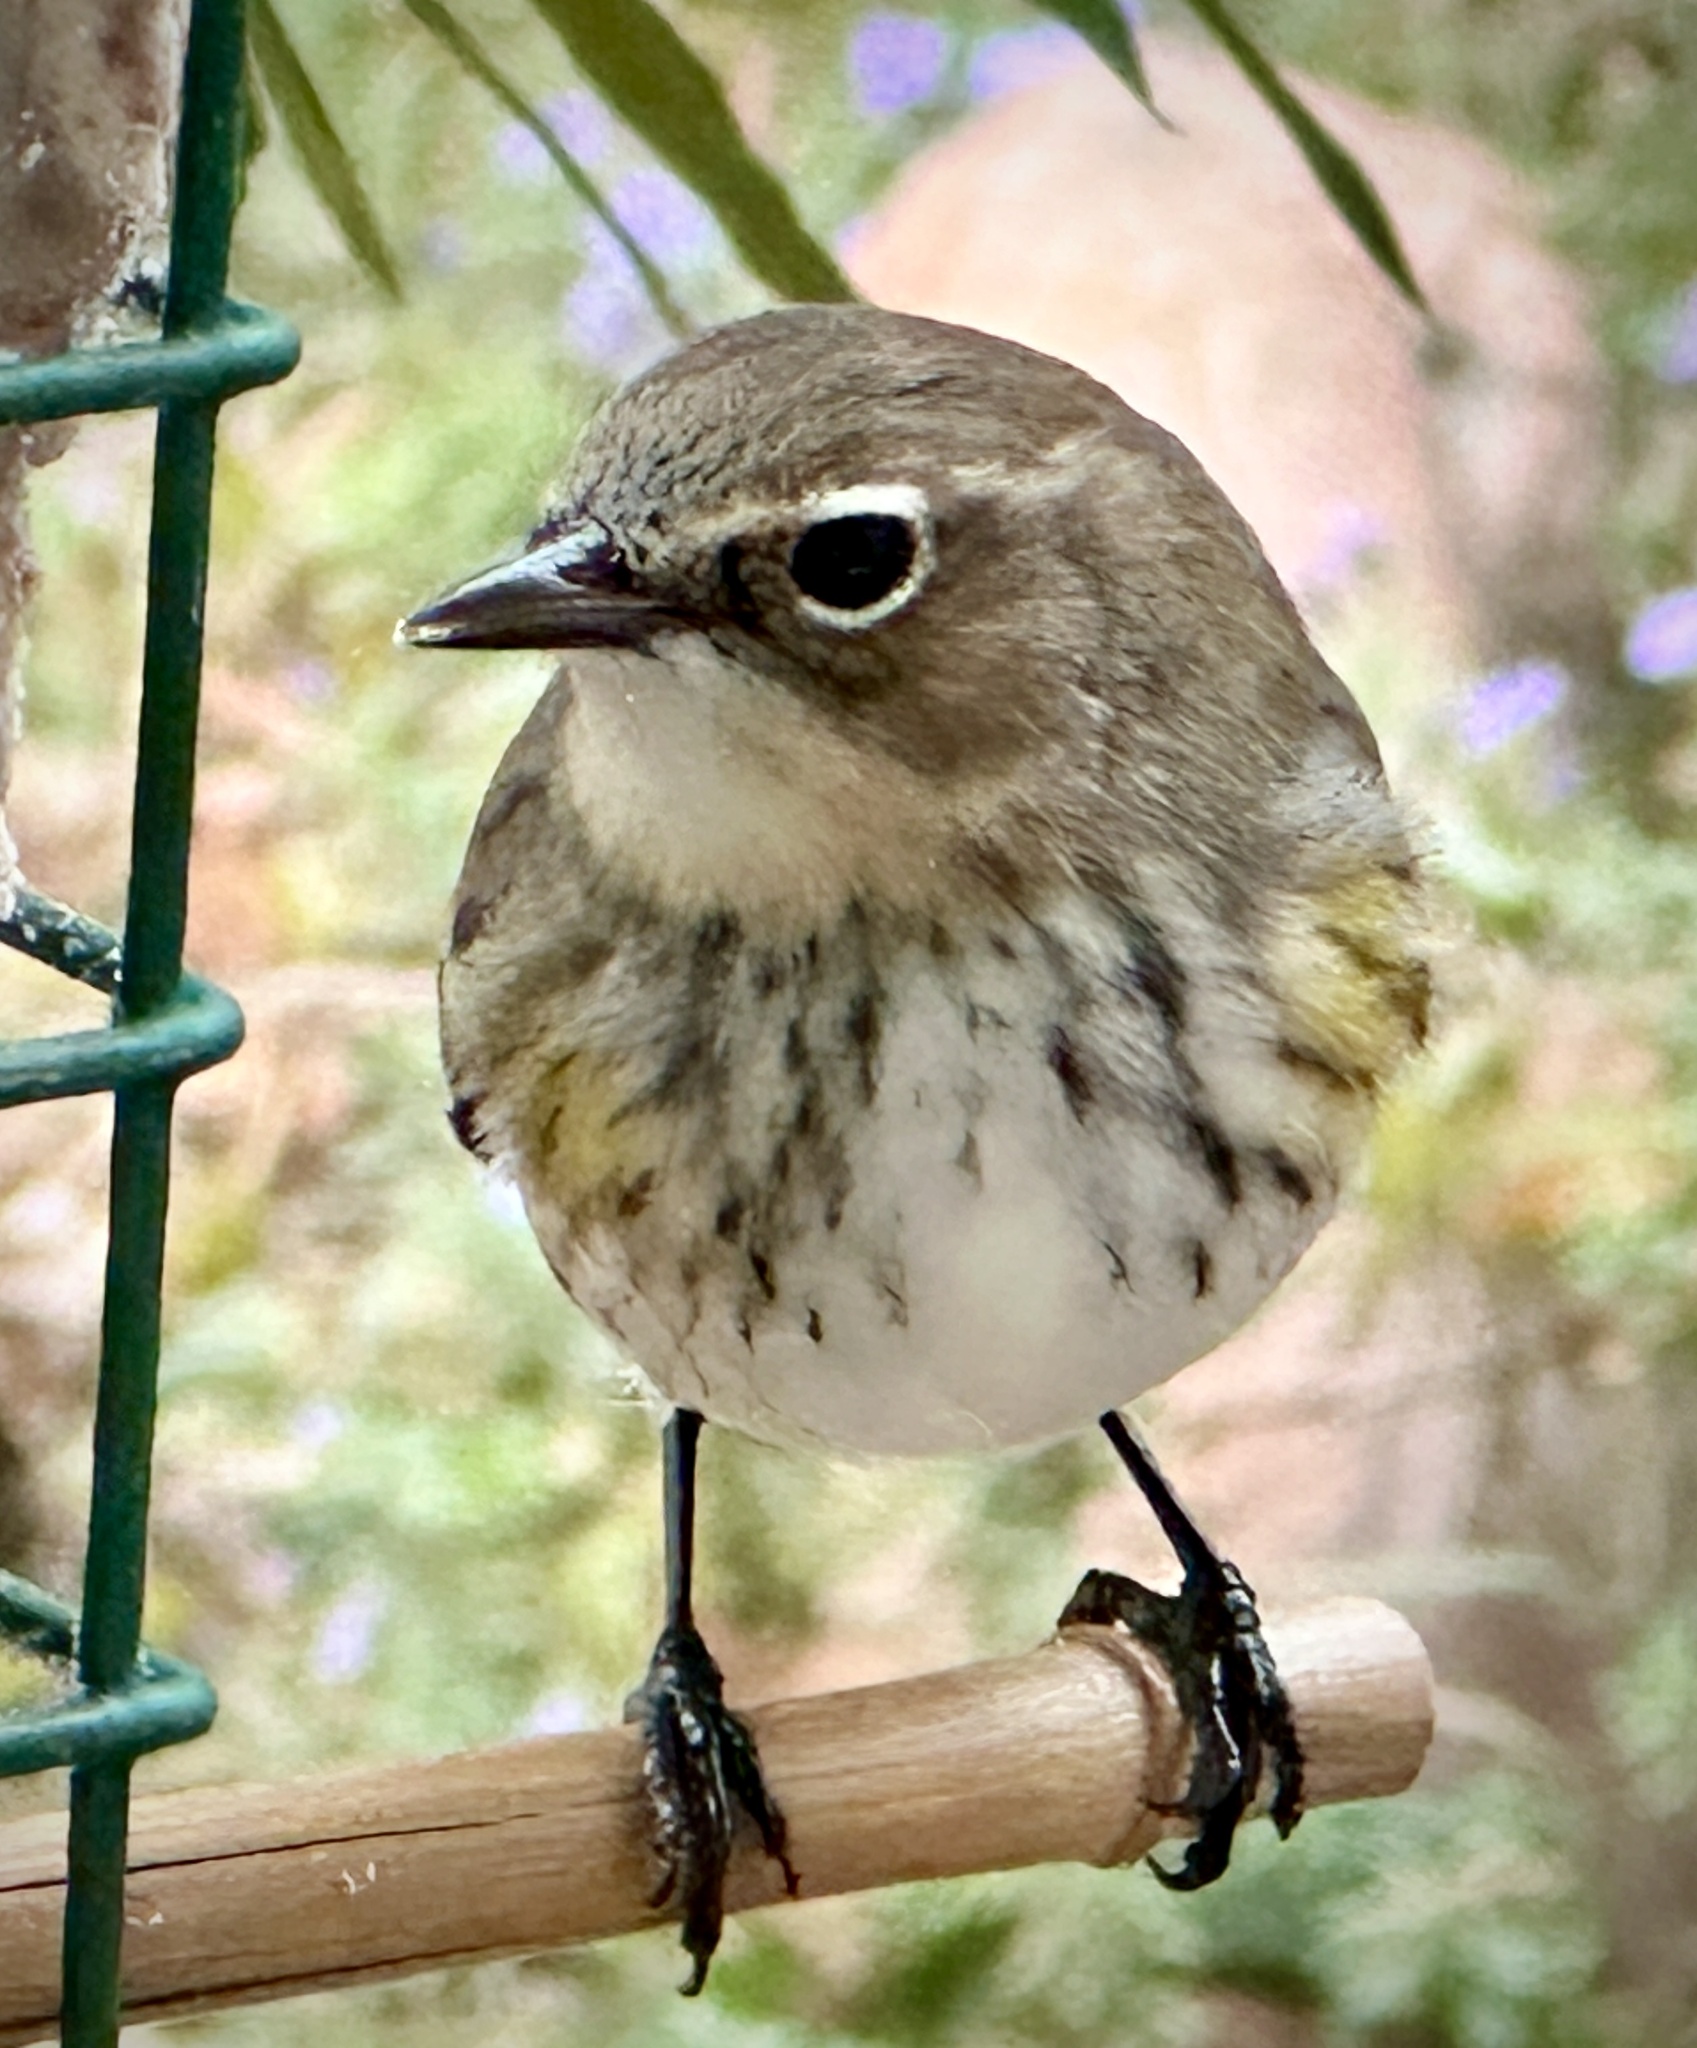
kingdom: Animalia
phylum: Chordata
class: Aves
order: Passeriformes
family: Parulidae
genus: Setophaga
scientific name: Setophaga coronata
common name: Myrtle warbler
